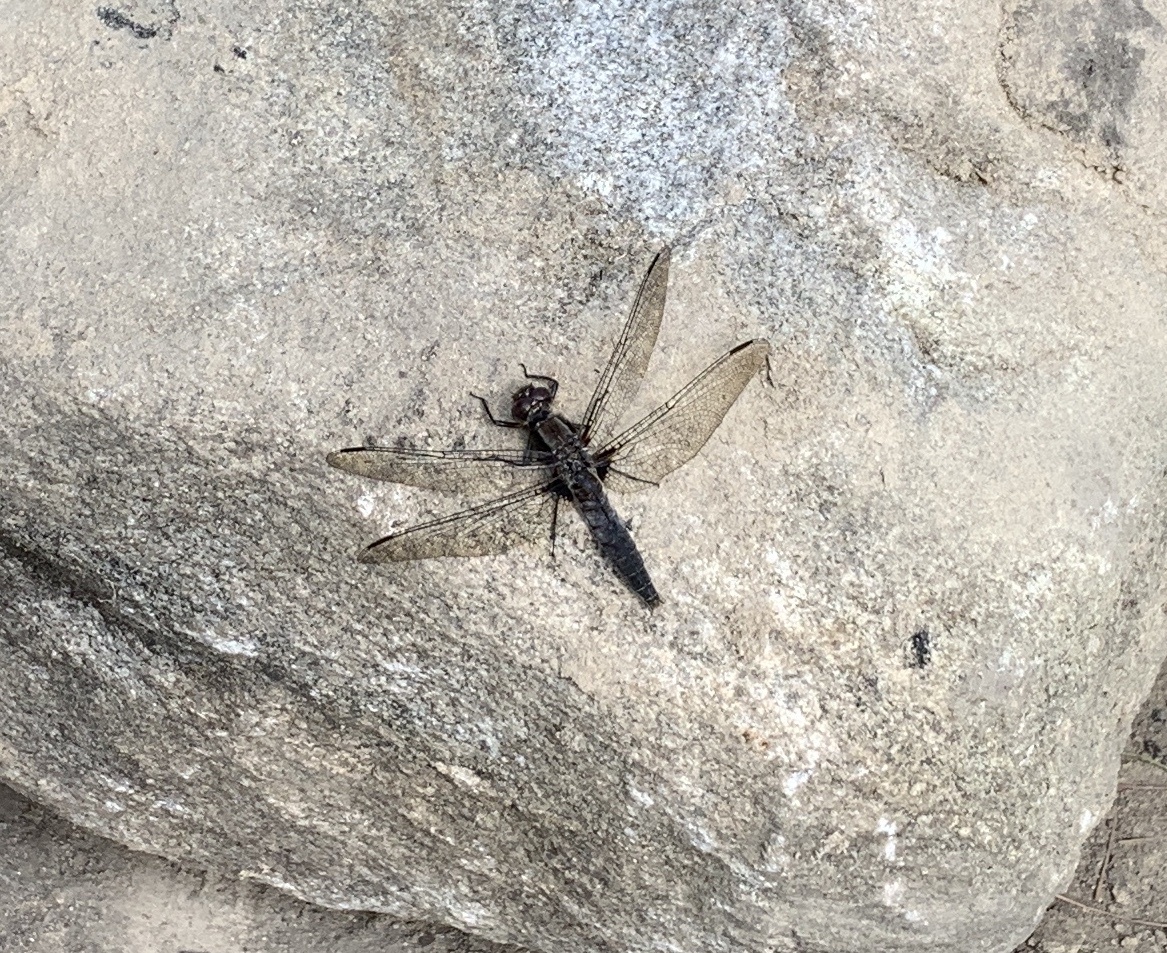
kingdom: Animalia
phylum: Arthropoda
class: Insecta
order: Odonata
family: Libellulidae
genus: Ladona
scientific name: Ladona julia
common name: Chalk-fronted corporal
